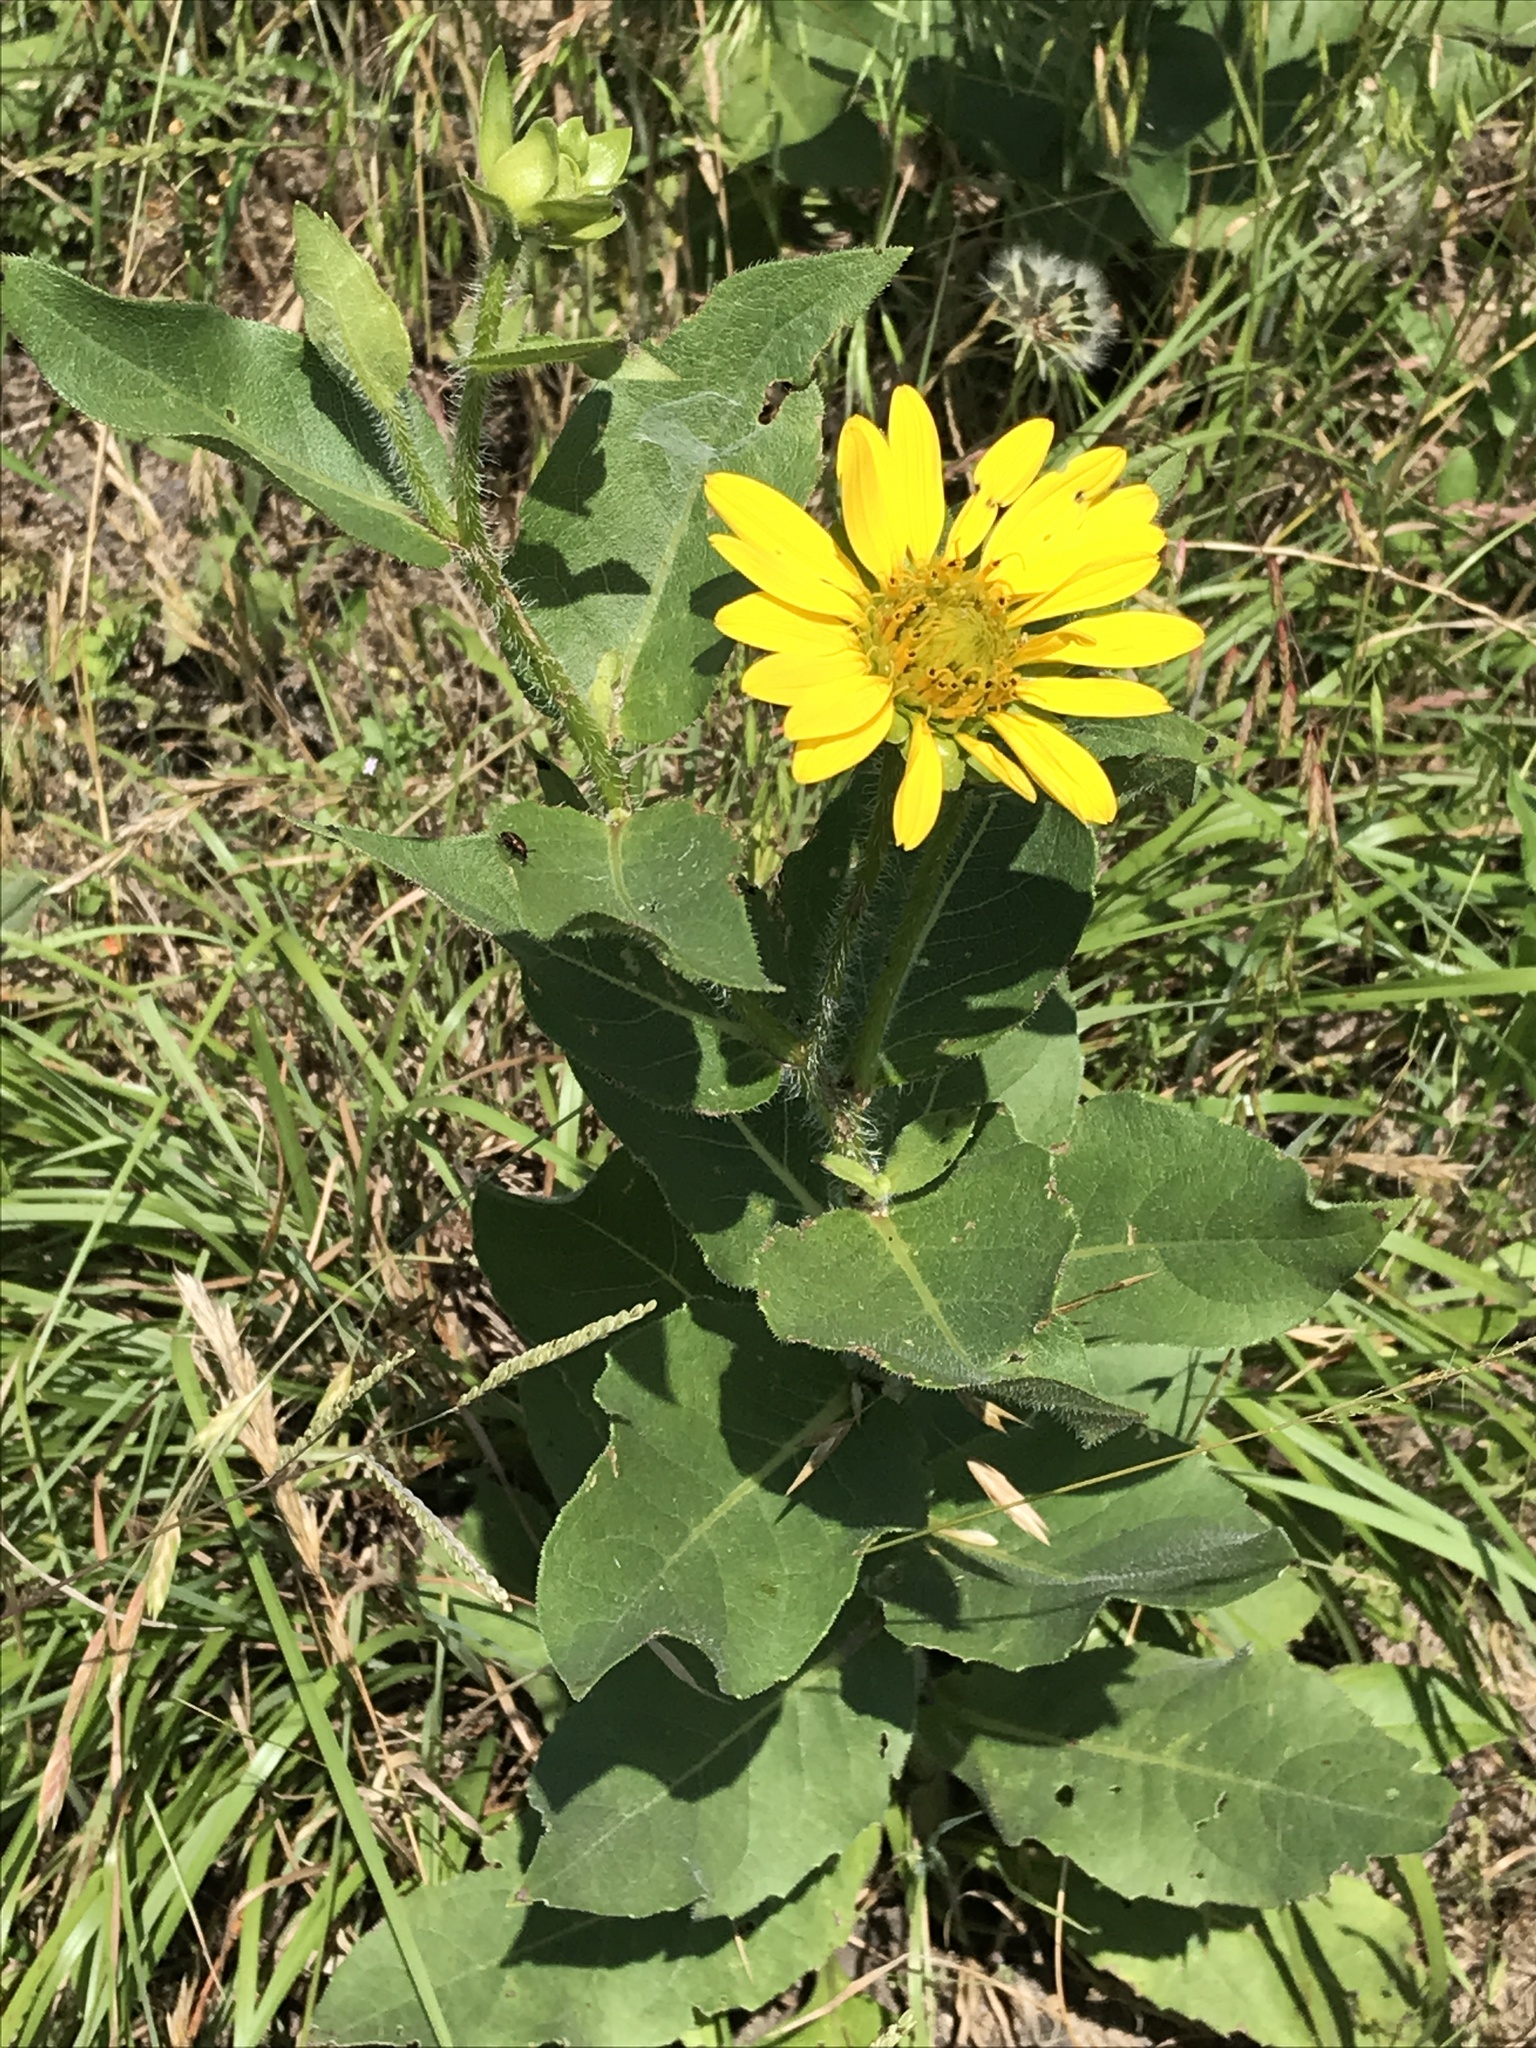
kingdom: Plantae
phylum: Tracheophyta
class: Magnoliopsida
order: Asterales
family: Asteraceae
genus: Silphium
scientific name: Silphium radula
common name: Roughleaf rosinweed
